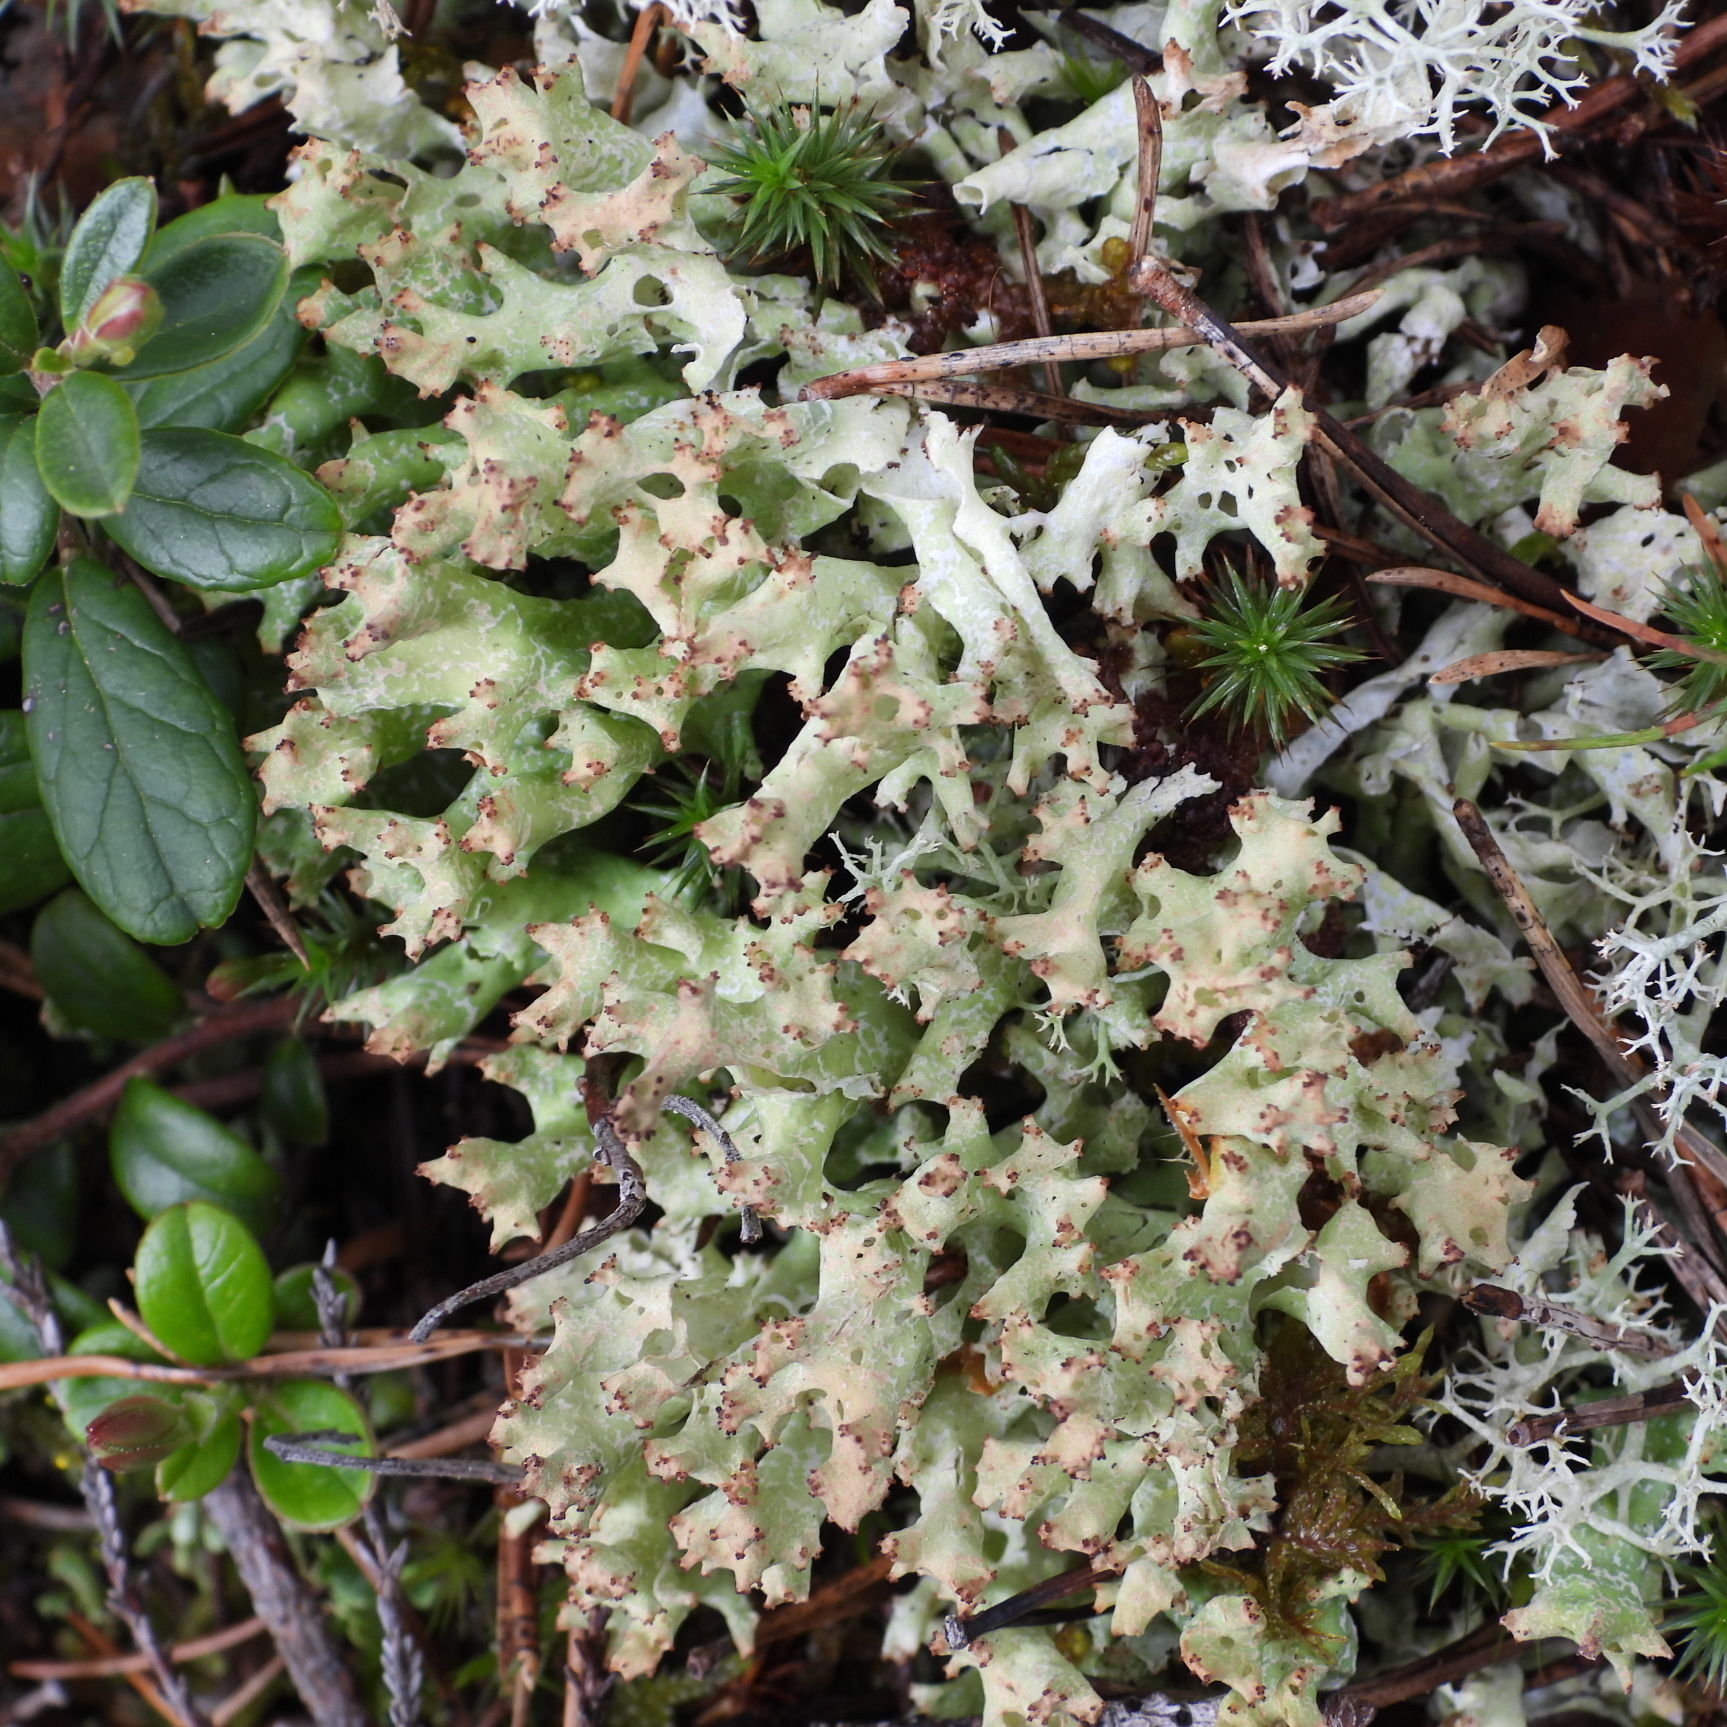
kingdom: Fungi
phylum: Ascomycota
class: Lecanoromycetes
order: Lecanorales
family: Cladoniaceae
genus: Cladonia
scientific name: Cladonia turgida
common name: Crazy scale lichen
